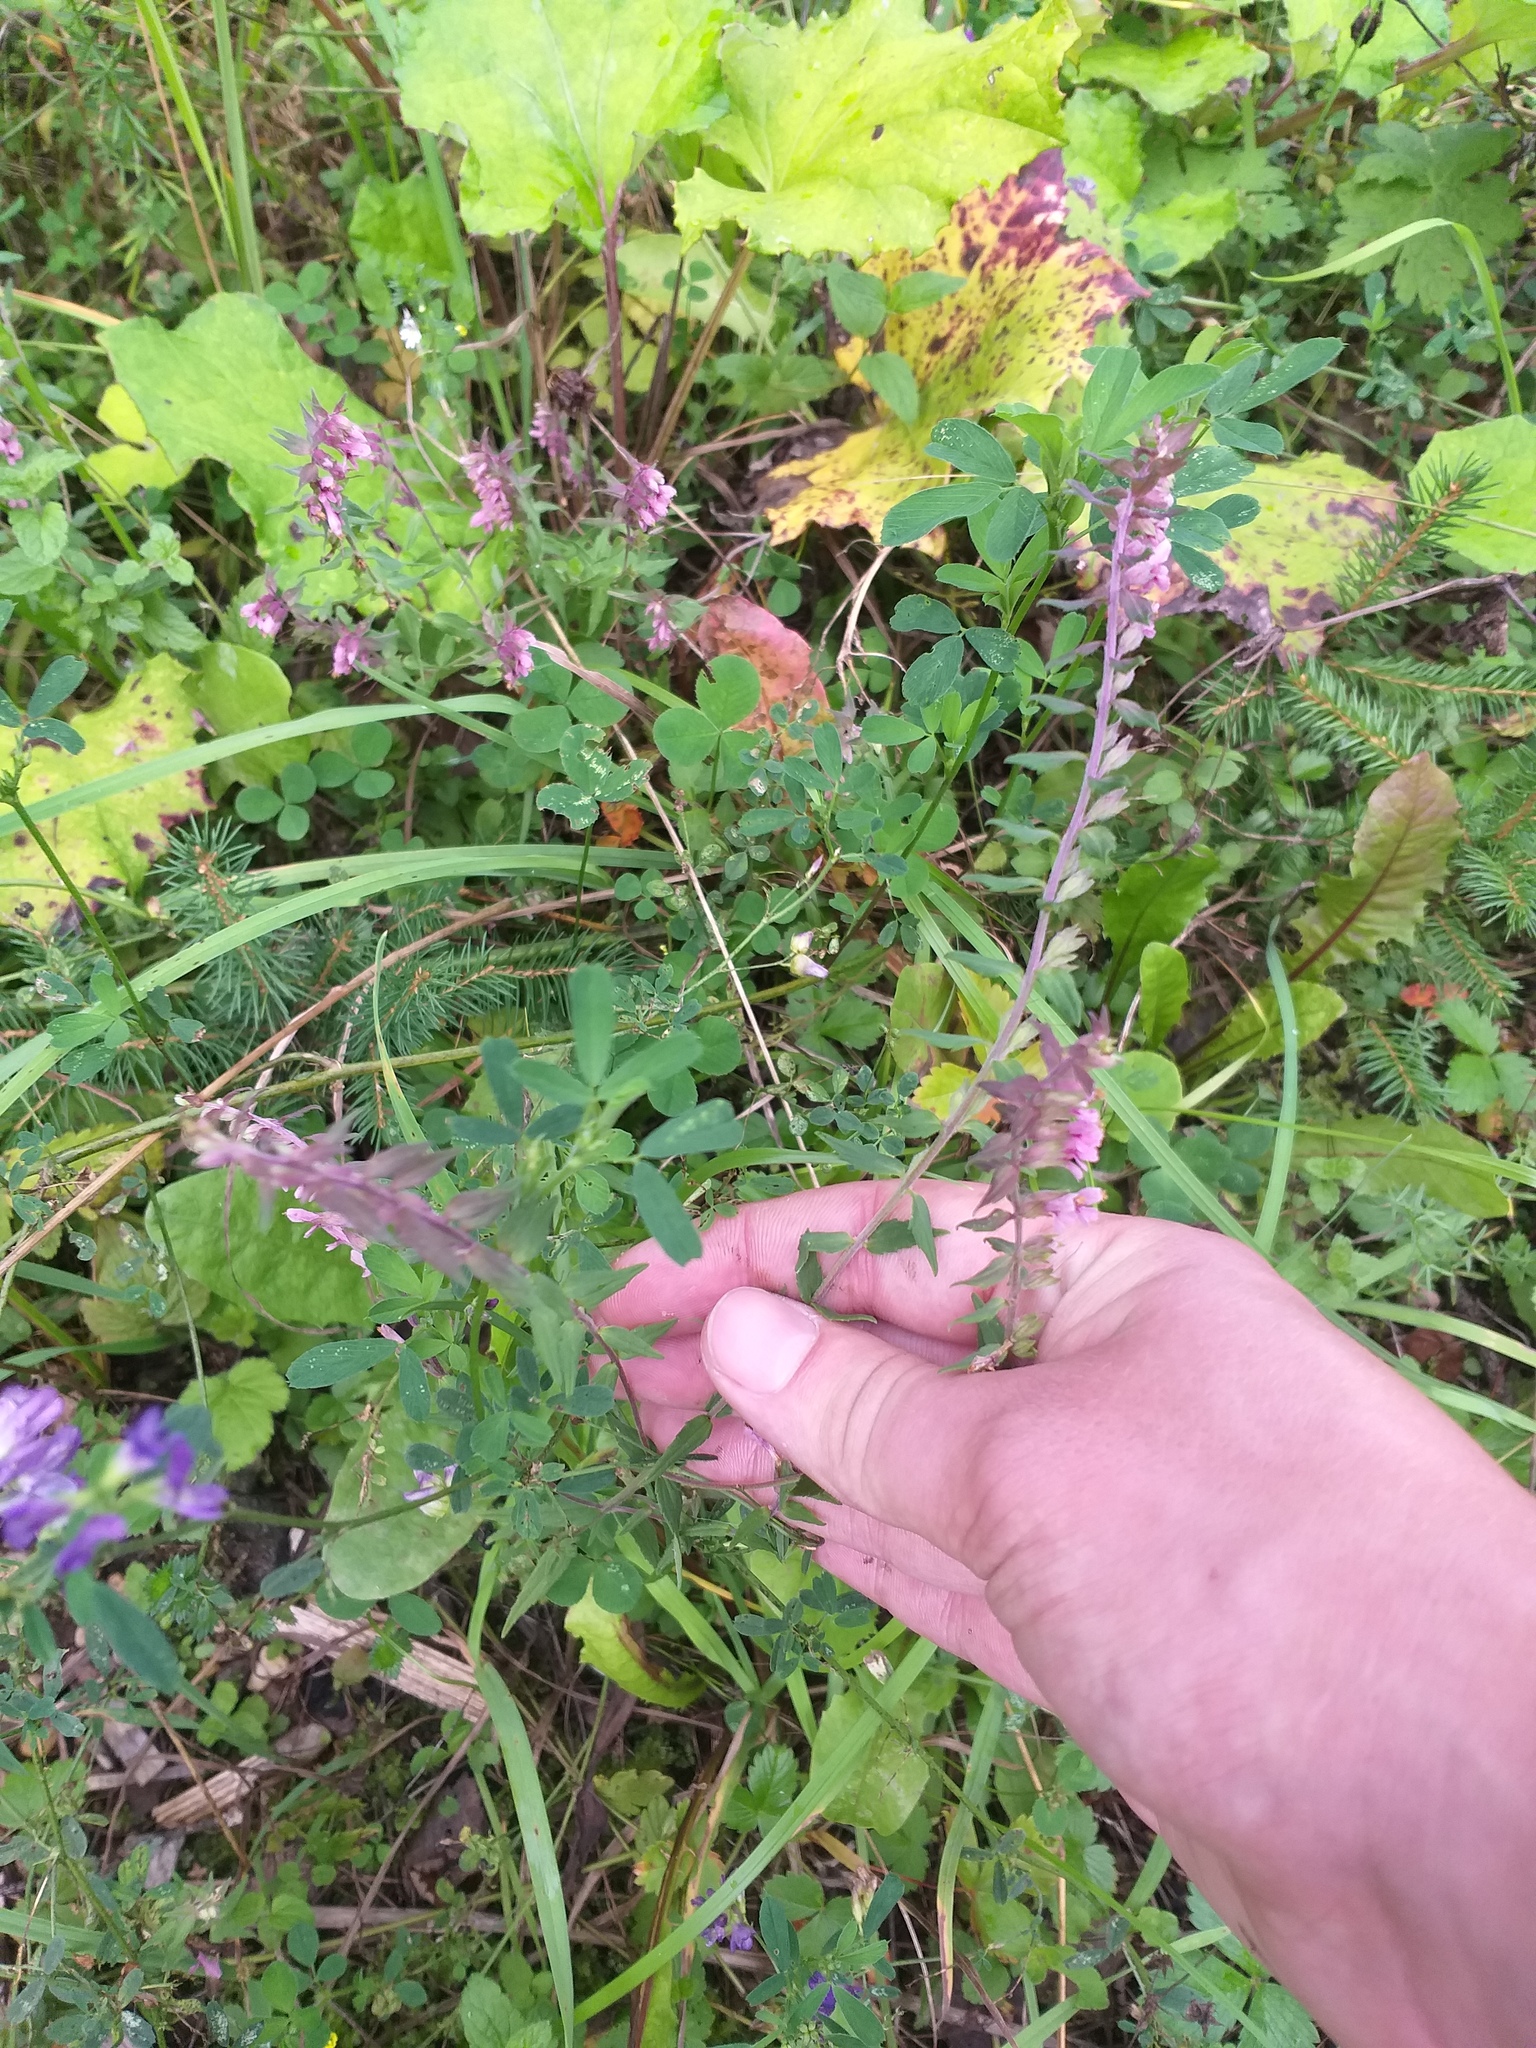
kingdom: Plantae
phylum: Tracheophyta
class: Magnoliopsida
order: Lamiales
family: Orobanchaceae
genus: Odontites
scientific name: Odontites vulgaris
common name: Broomrape
